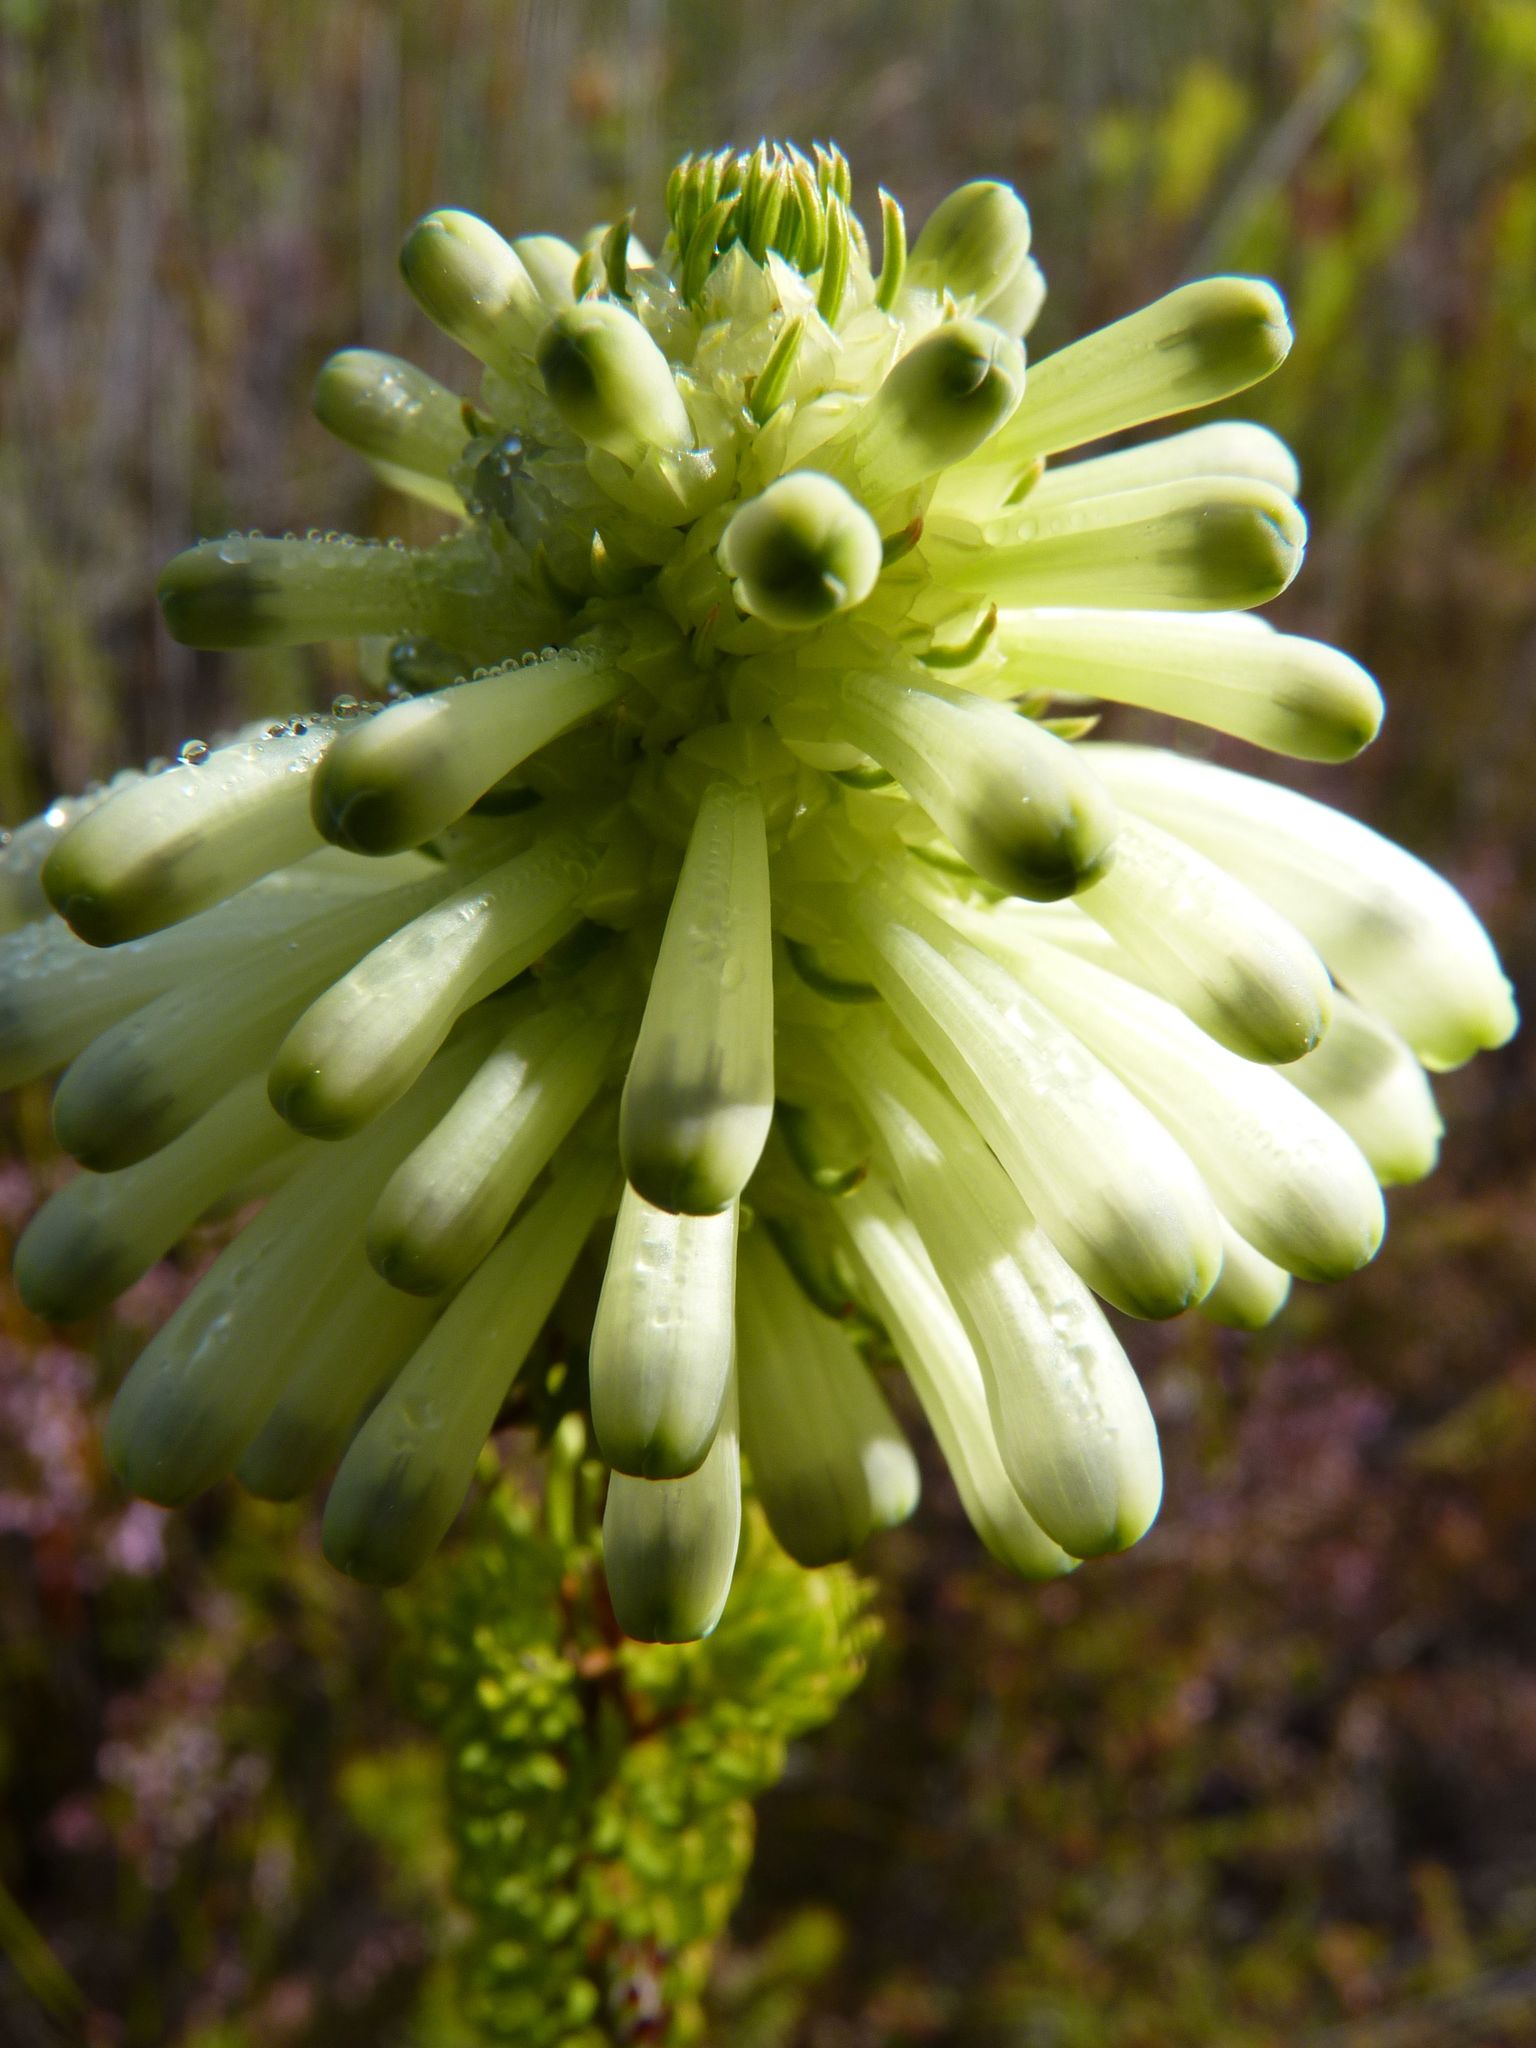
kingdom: Plantae
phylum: Tracheophyta
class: Magnoliopsida
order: Ericales
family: Ericaceae
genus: Erica
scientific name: Erica sessiliflora
